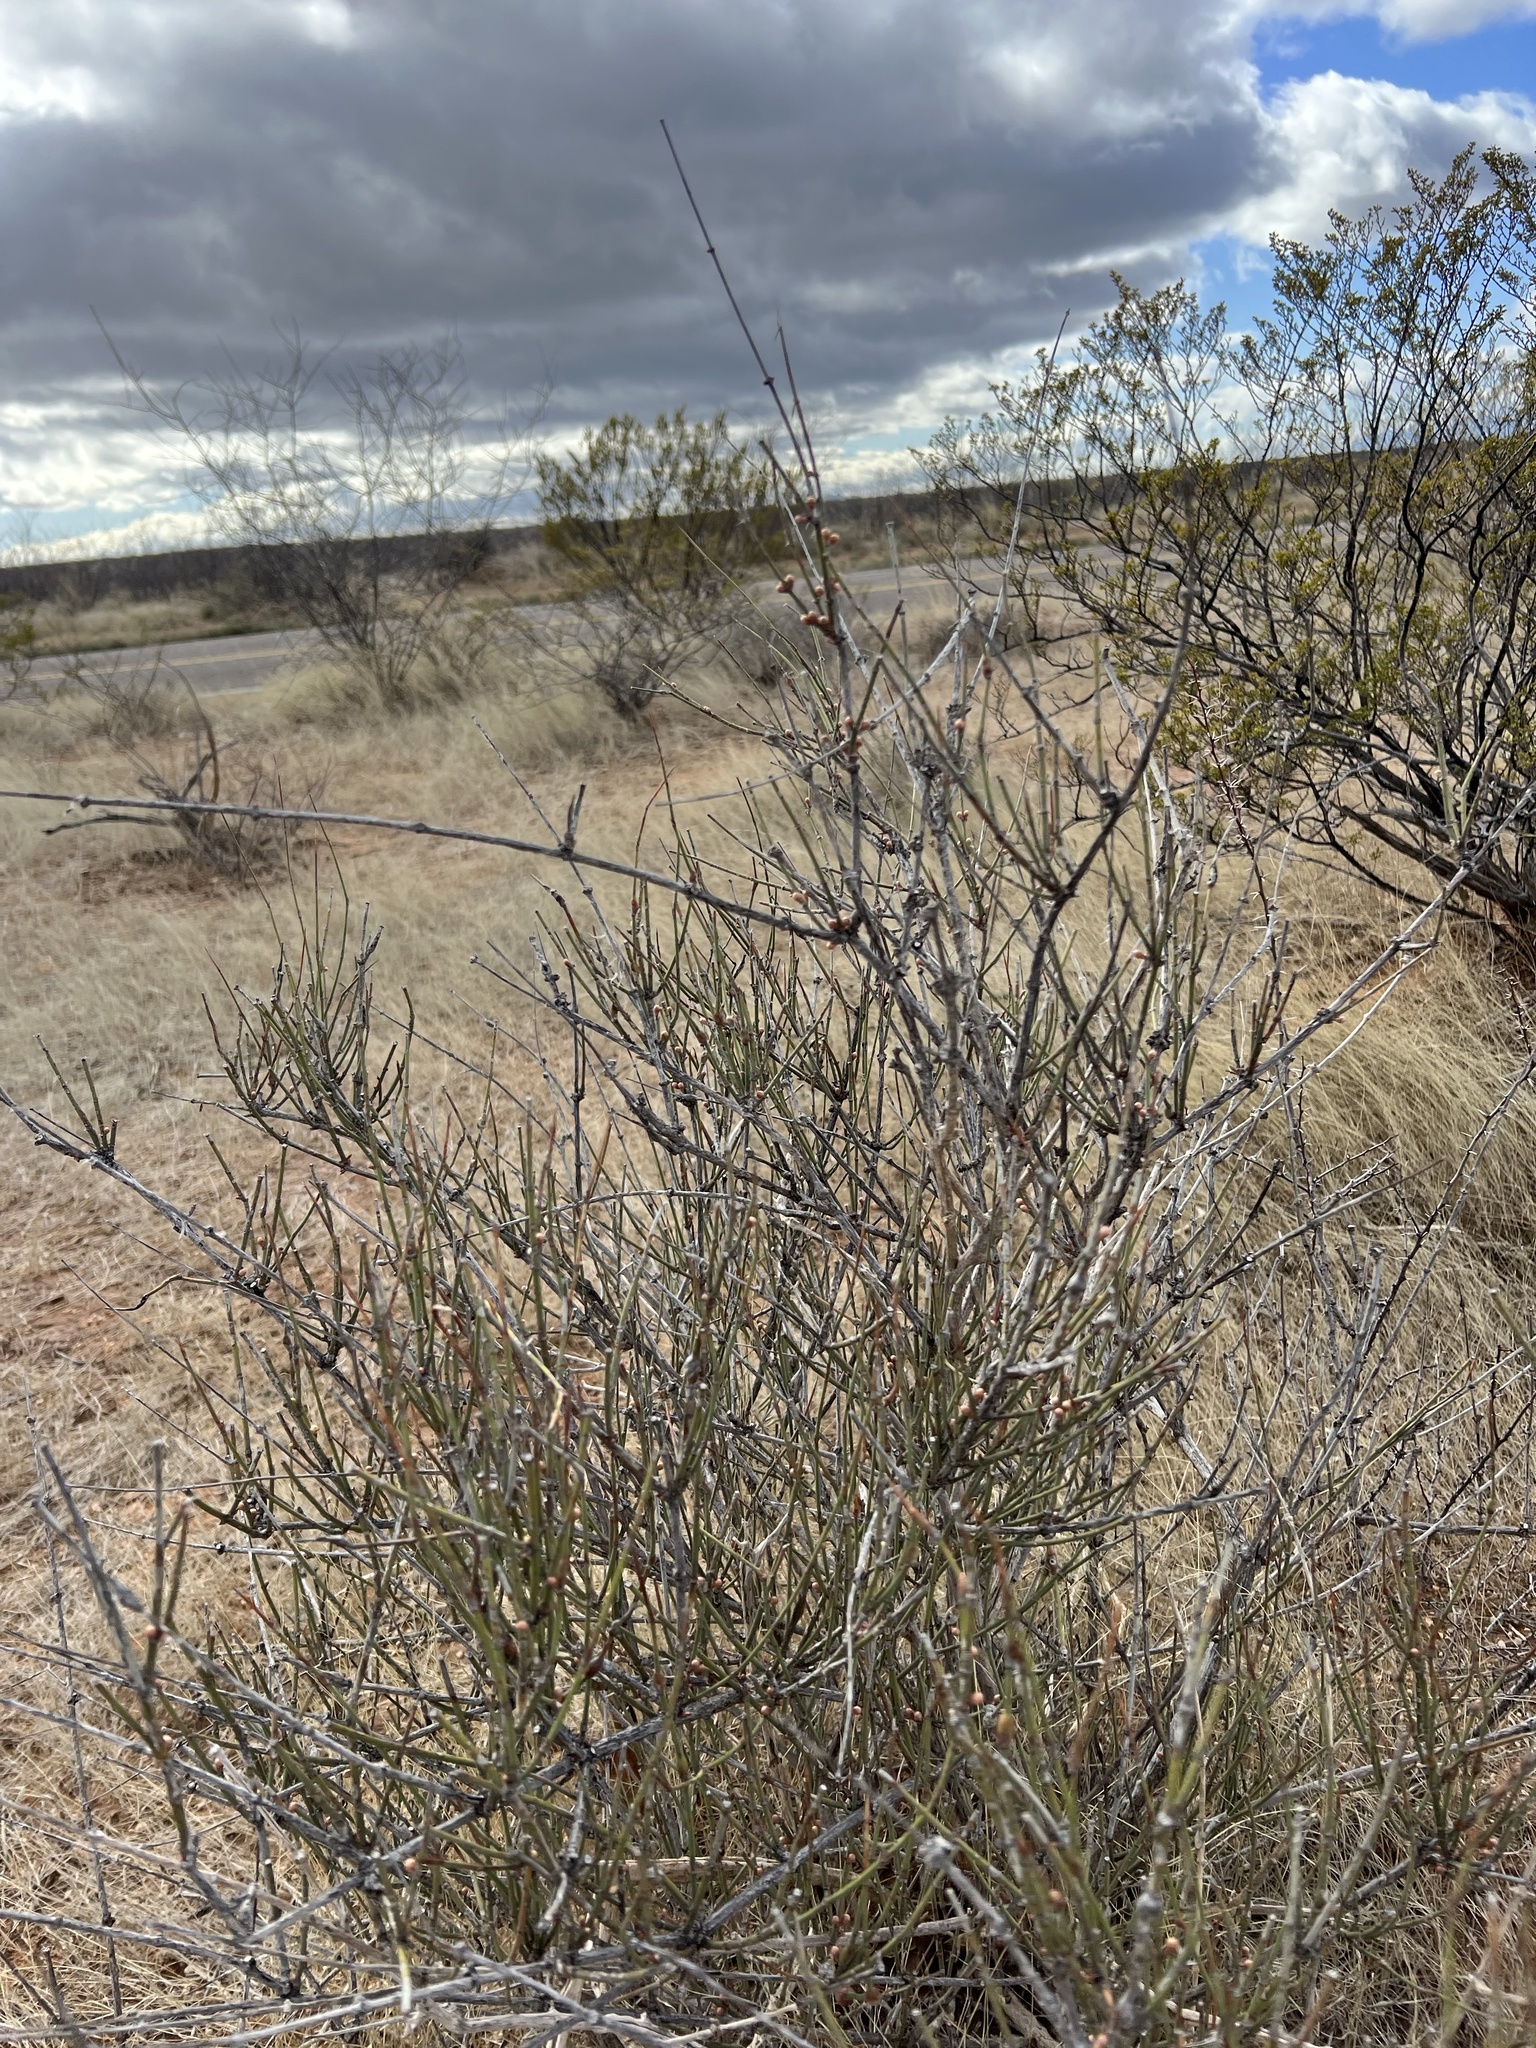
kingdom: Plantae
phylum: Tracheophyta
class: Gnetopsida
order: Ephedrales
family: Ephedraceae
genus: Ephedra
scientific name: Ephedra trifurca
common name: Mexican-tea
